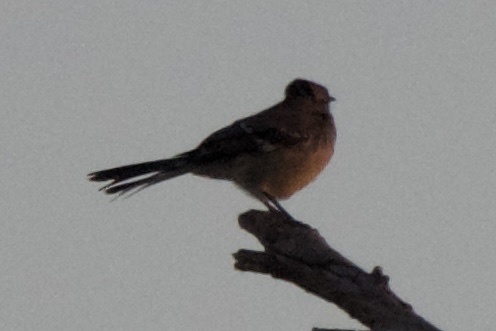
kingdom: Animalia
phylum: Chordata
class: Aves
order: Passeriformes
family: Mimidae
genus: Mimus
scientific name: Mimus polyglottos
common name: Northern mockingbird
